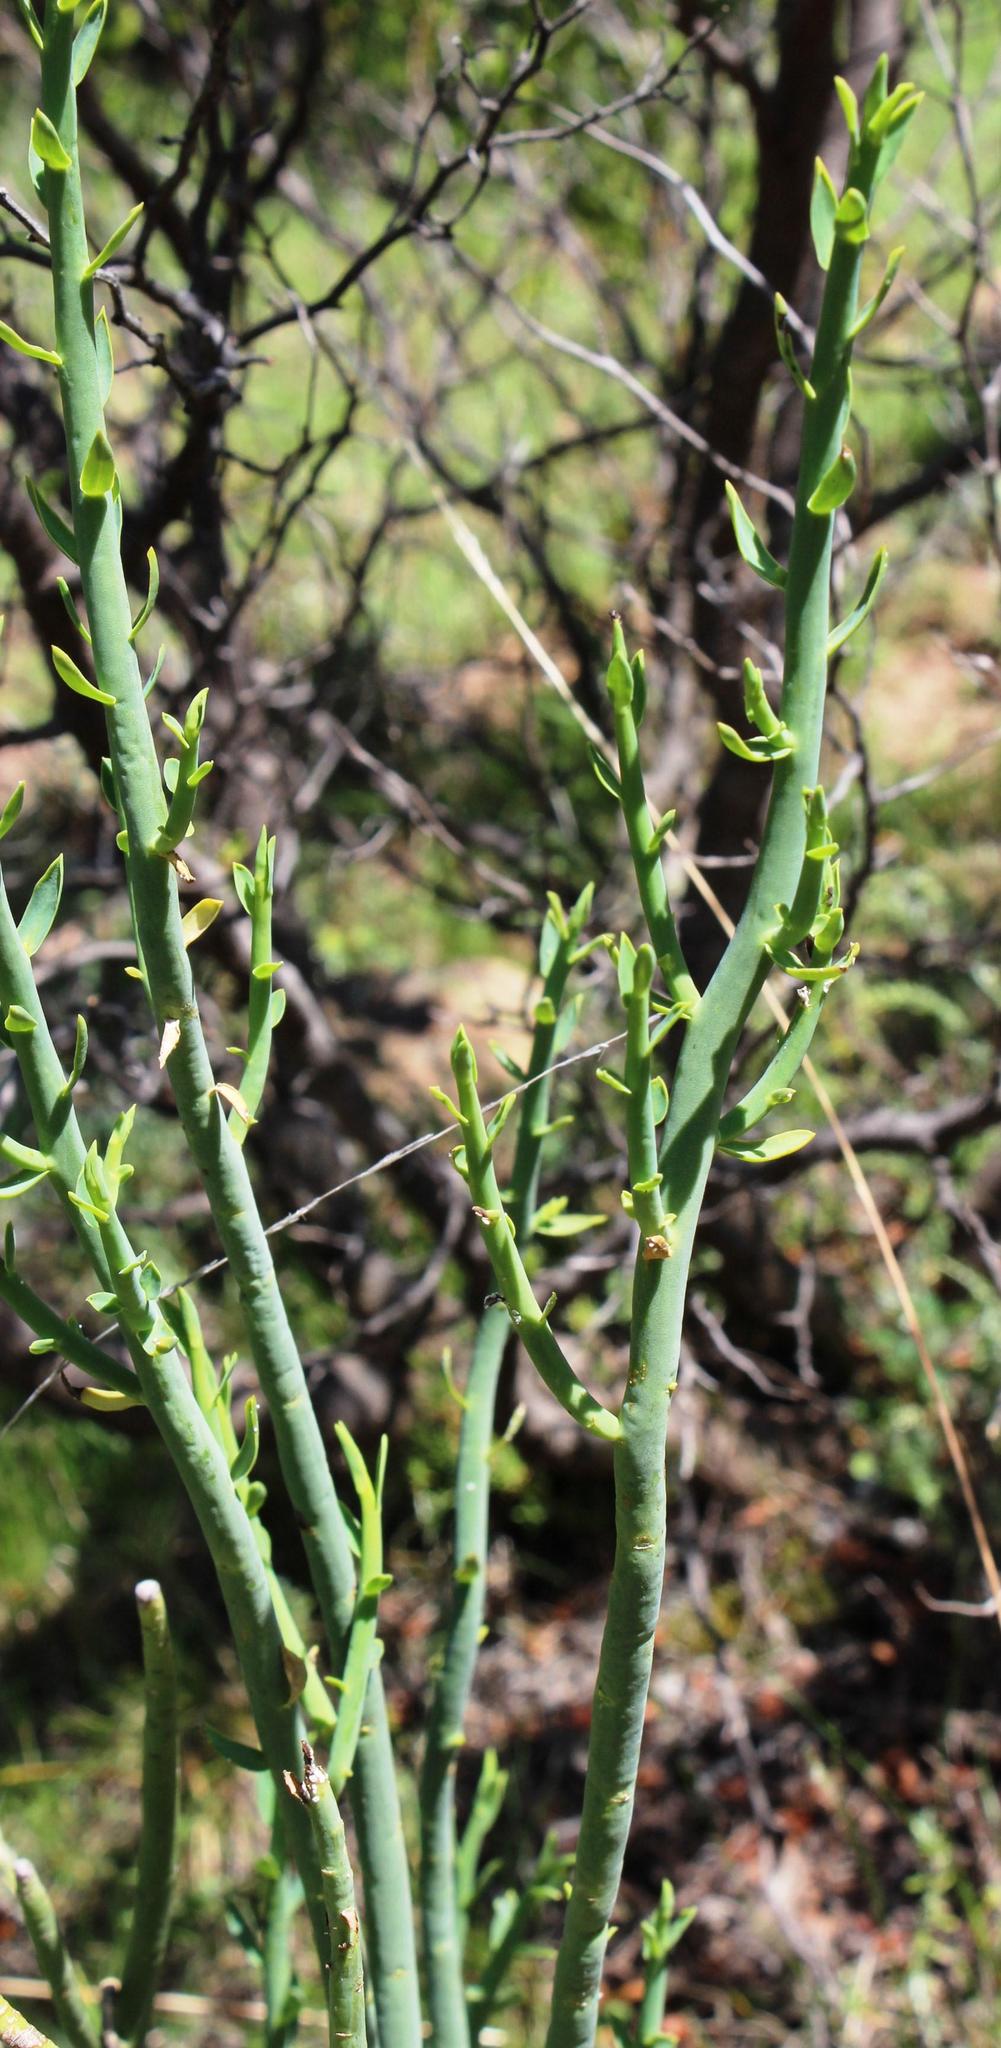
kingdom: Plantae
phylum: Tracheophyta
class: Magnoliopsida
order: Malpighiales
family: Euphorbiaceae
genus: Euphorbia
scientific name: Euphorbia mauritanica
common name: Jackal's-food
